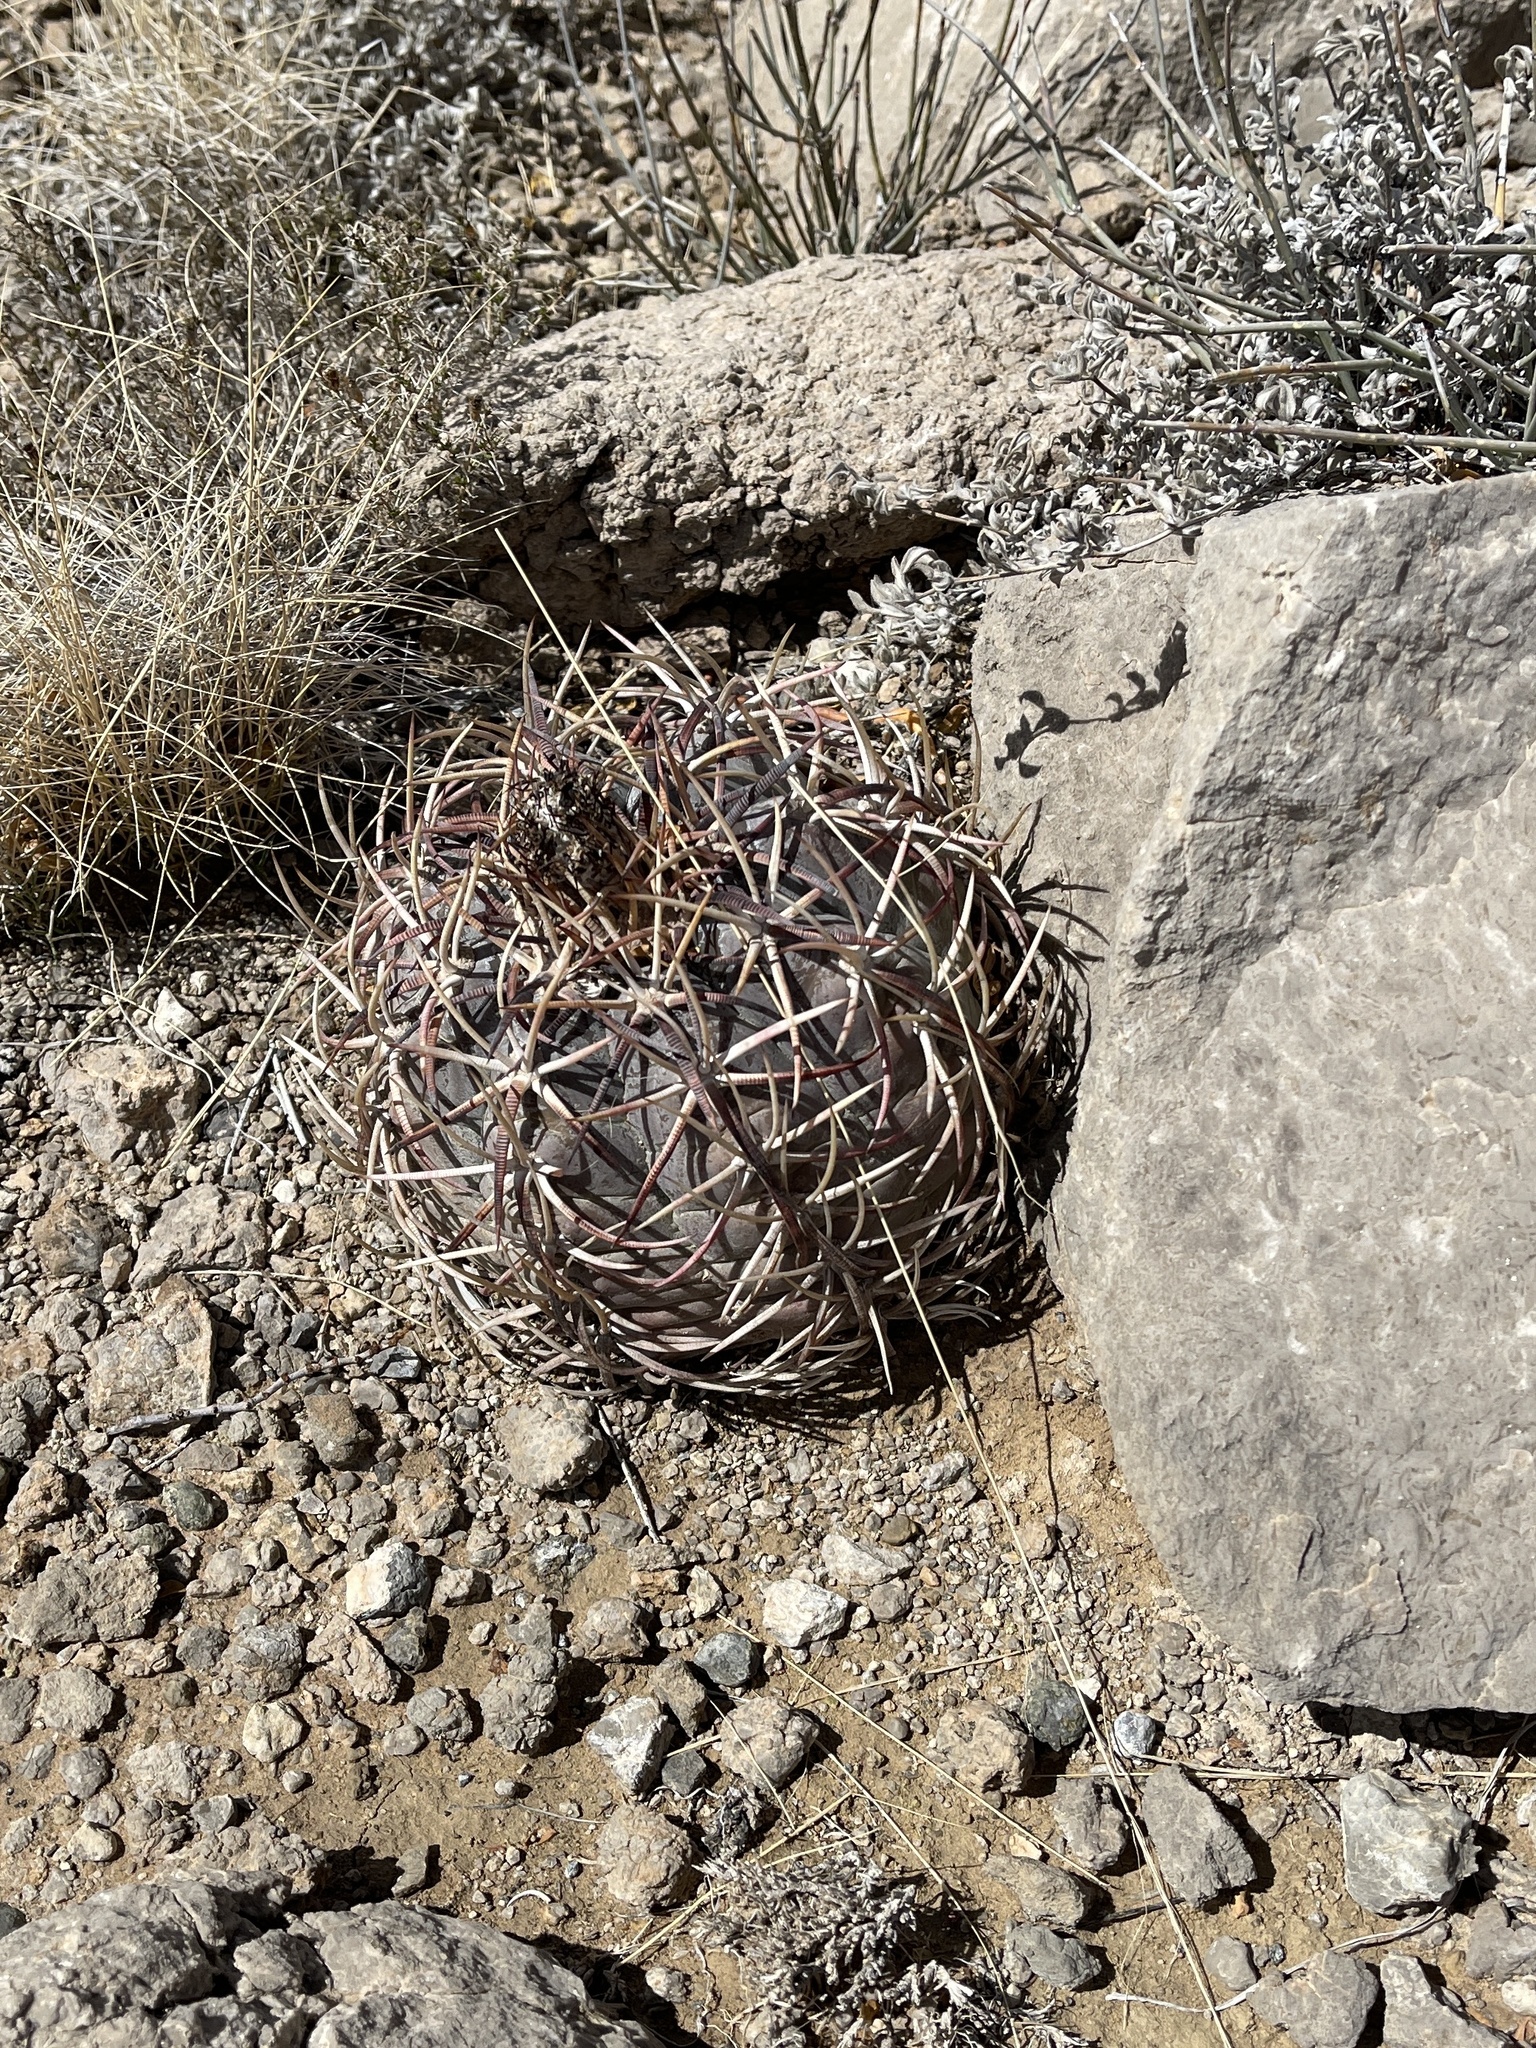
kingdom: Plantae
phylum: Tracheophyta
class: Magnoliopsida
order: Caryophyllales
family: Cactaceae
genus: Echinocactus
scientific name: Echinocactus horizonthalonius
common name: Devilshead
